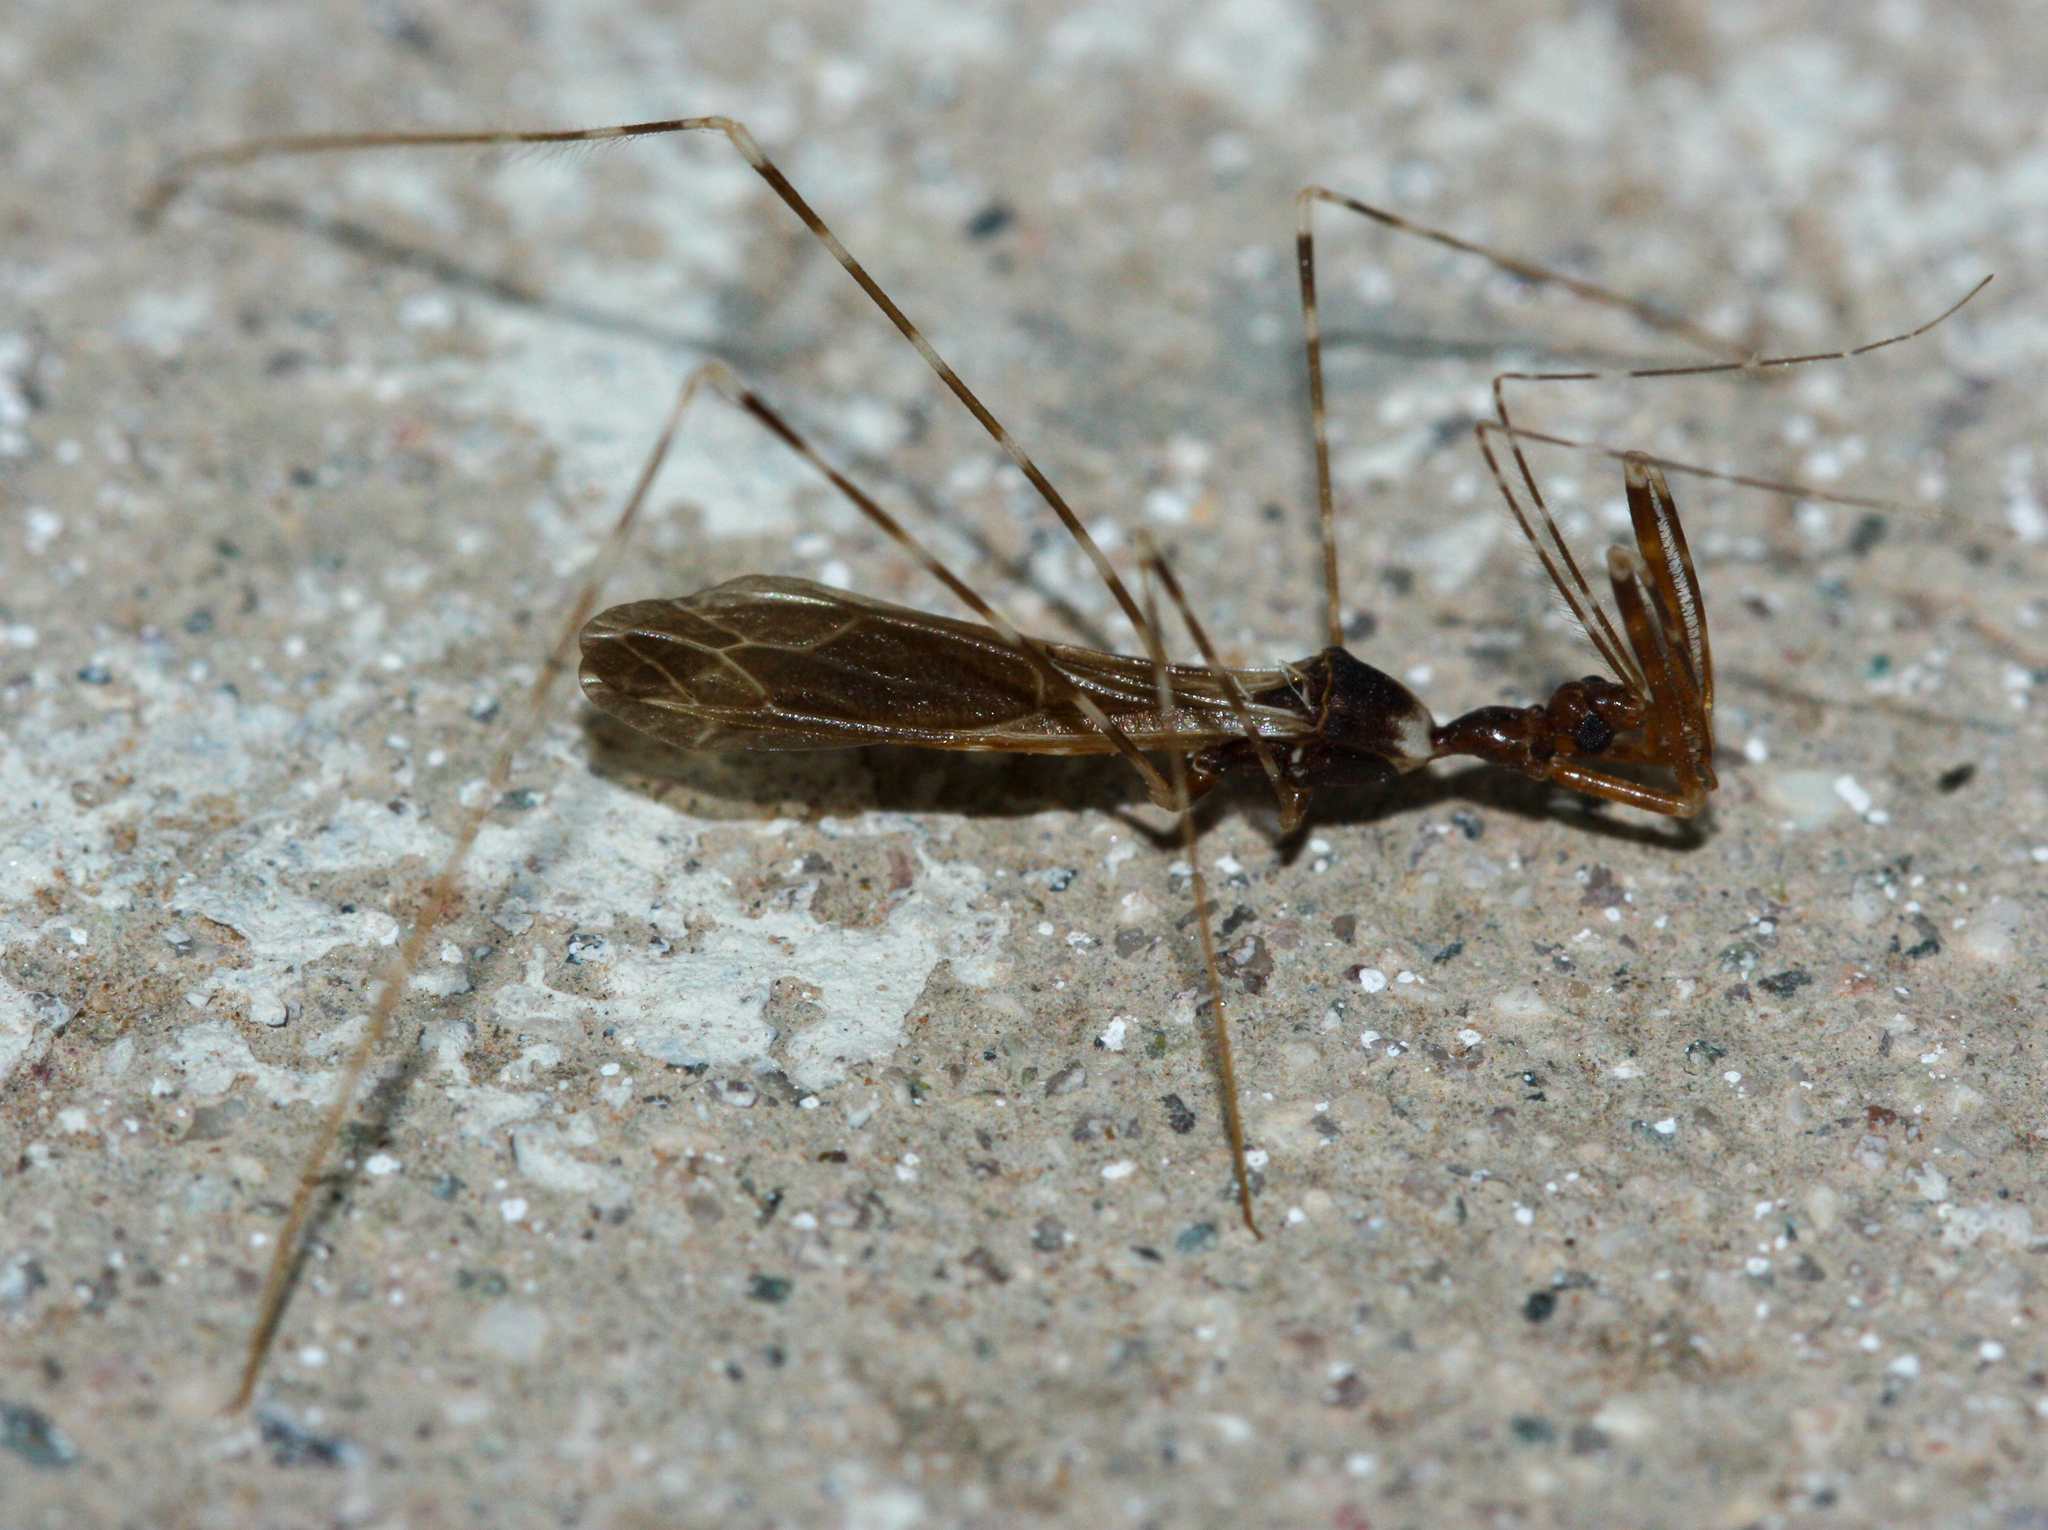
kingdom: Animalia
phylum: Arthropoda
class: Insecta
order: Hemiptera
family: Reduviidae
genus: Stenolemoides
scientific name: Stenolemoides arizonensis
